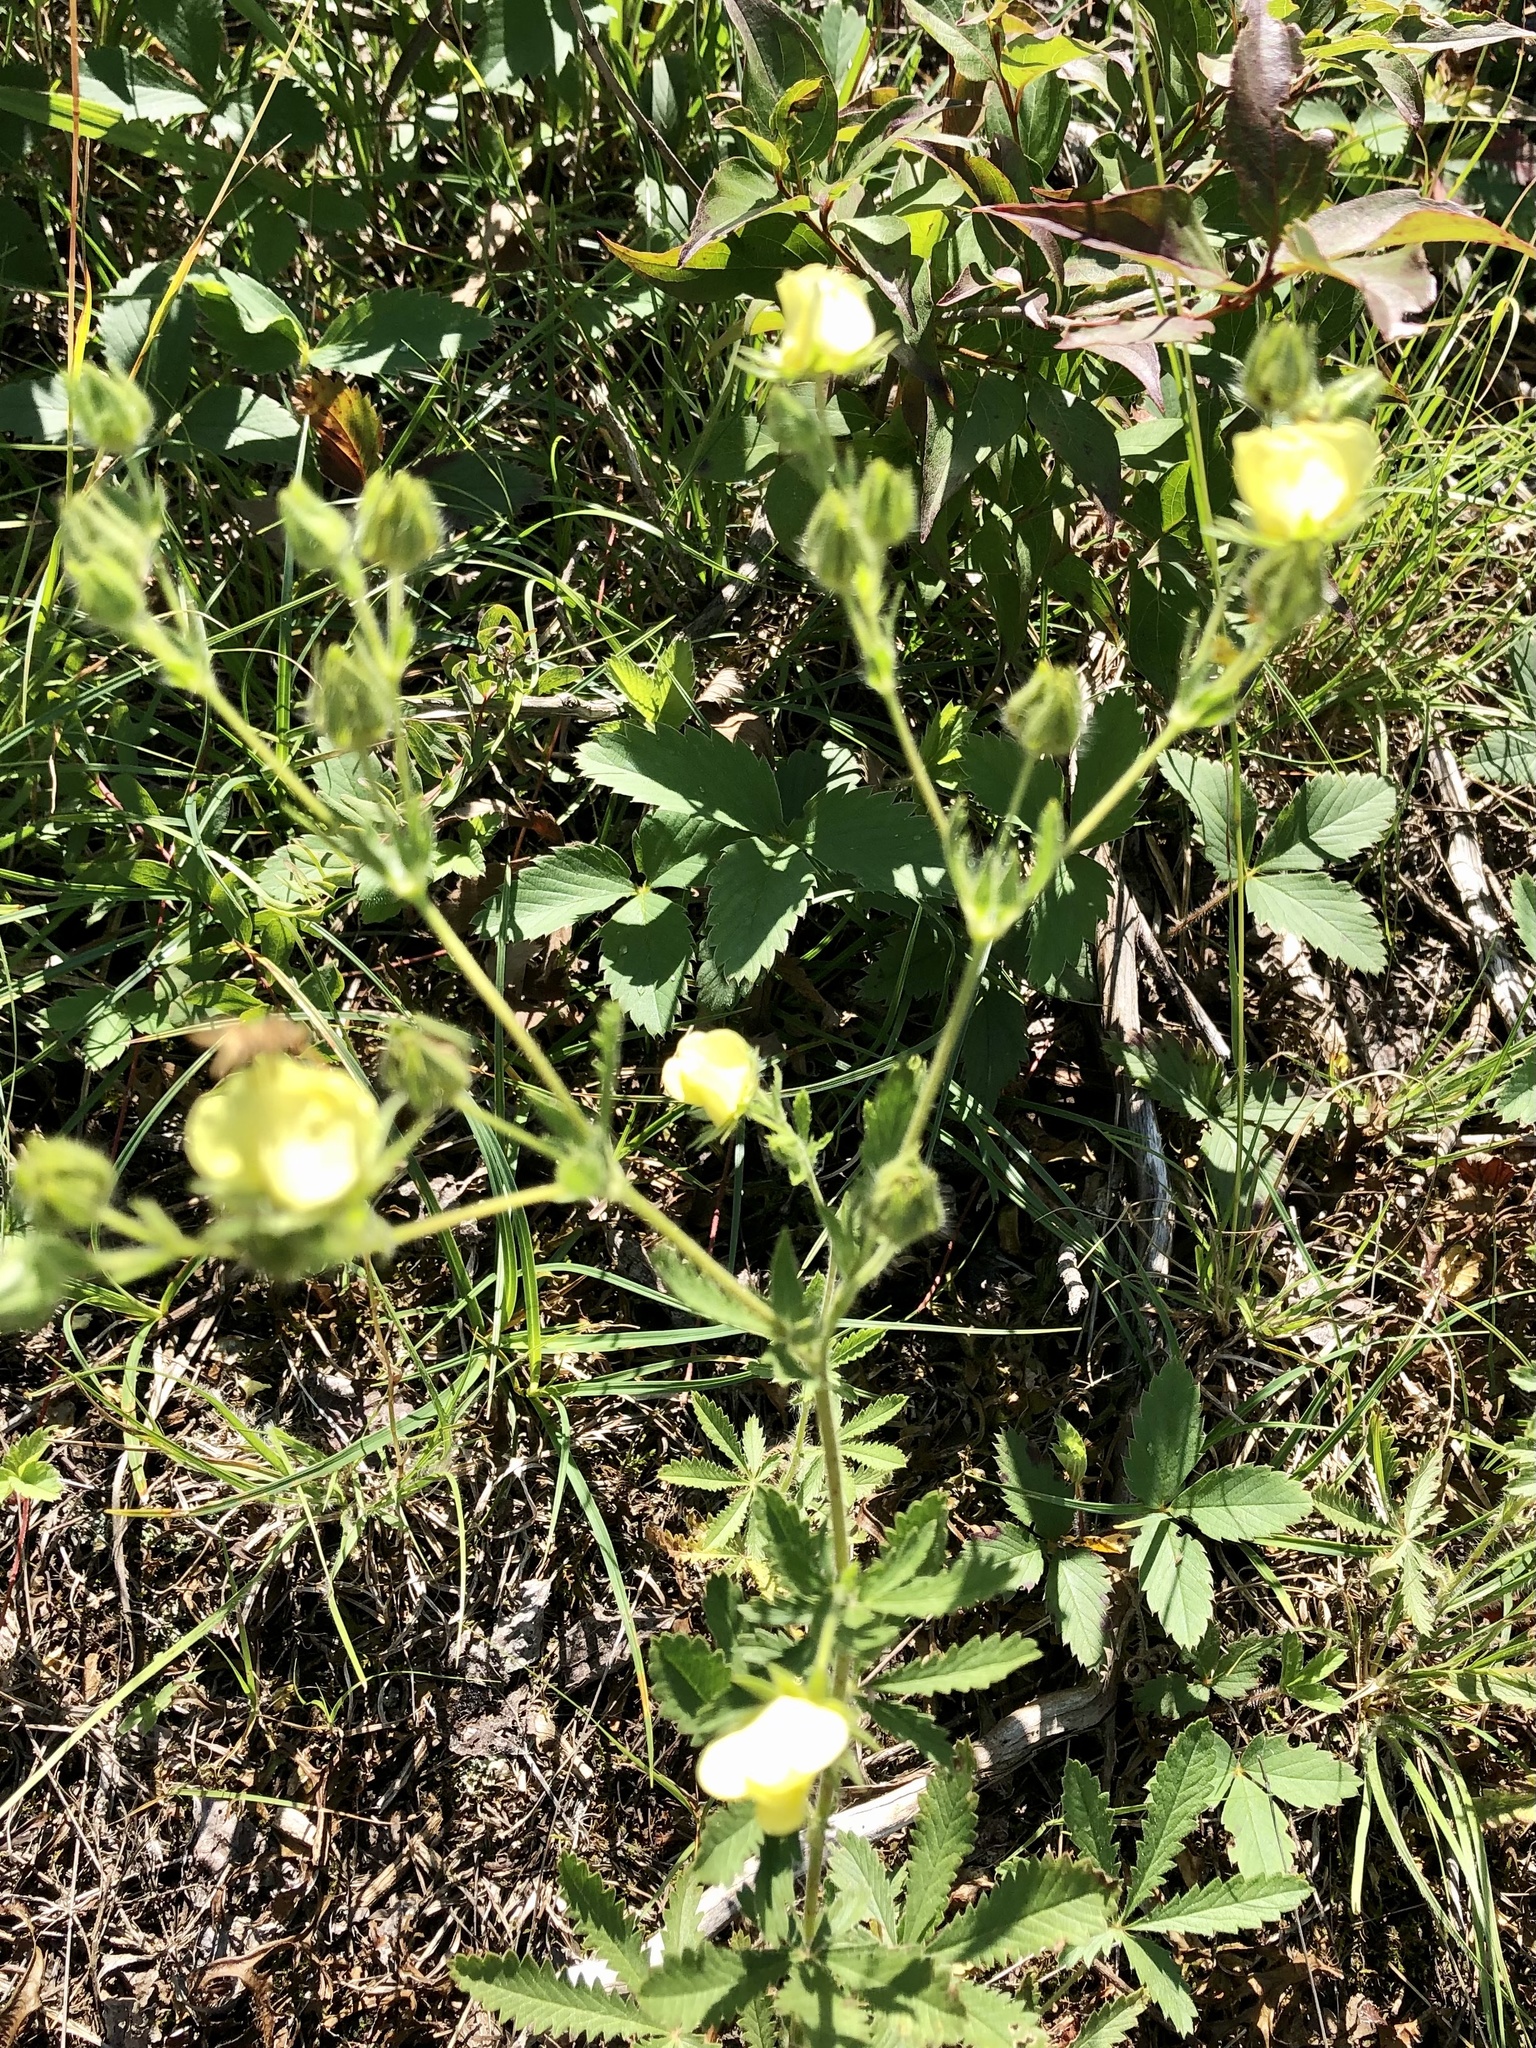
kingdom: Plantae
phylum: Tracheophyta
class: Magnoliopsida
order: Rosales
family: Rosaceae
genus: Potentilla
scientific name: Potentilla recta
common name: Sulphur cinquefoil
